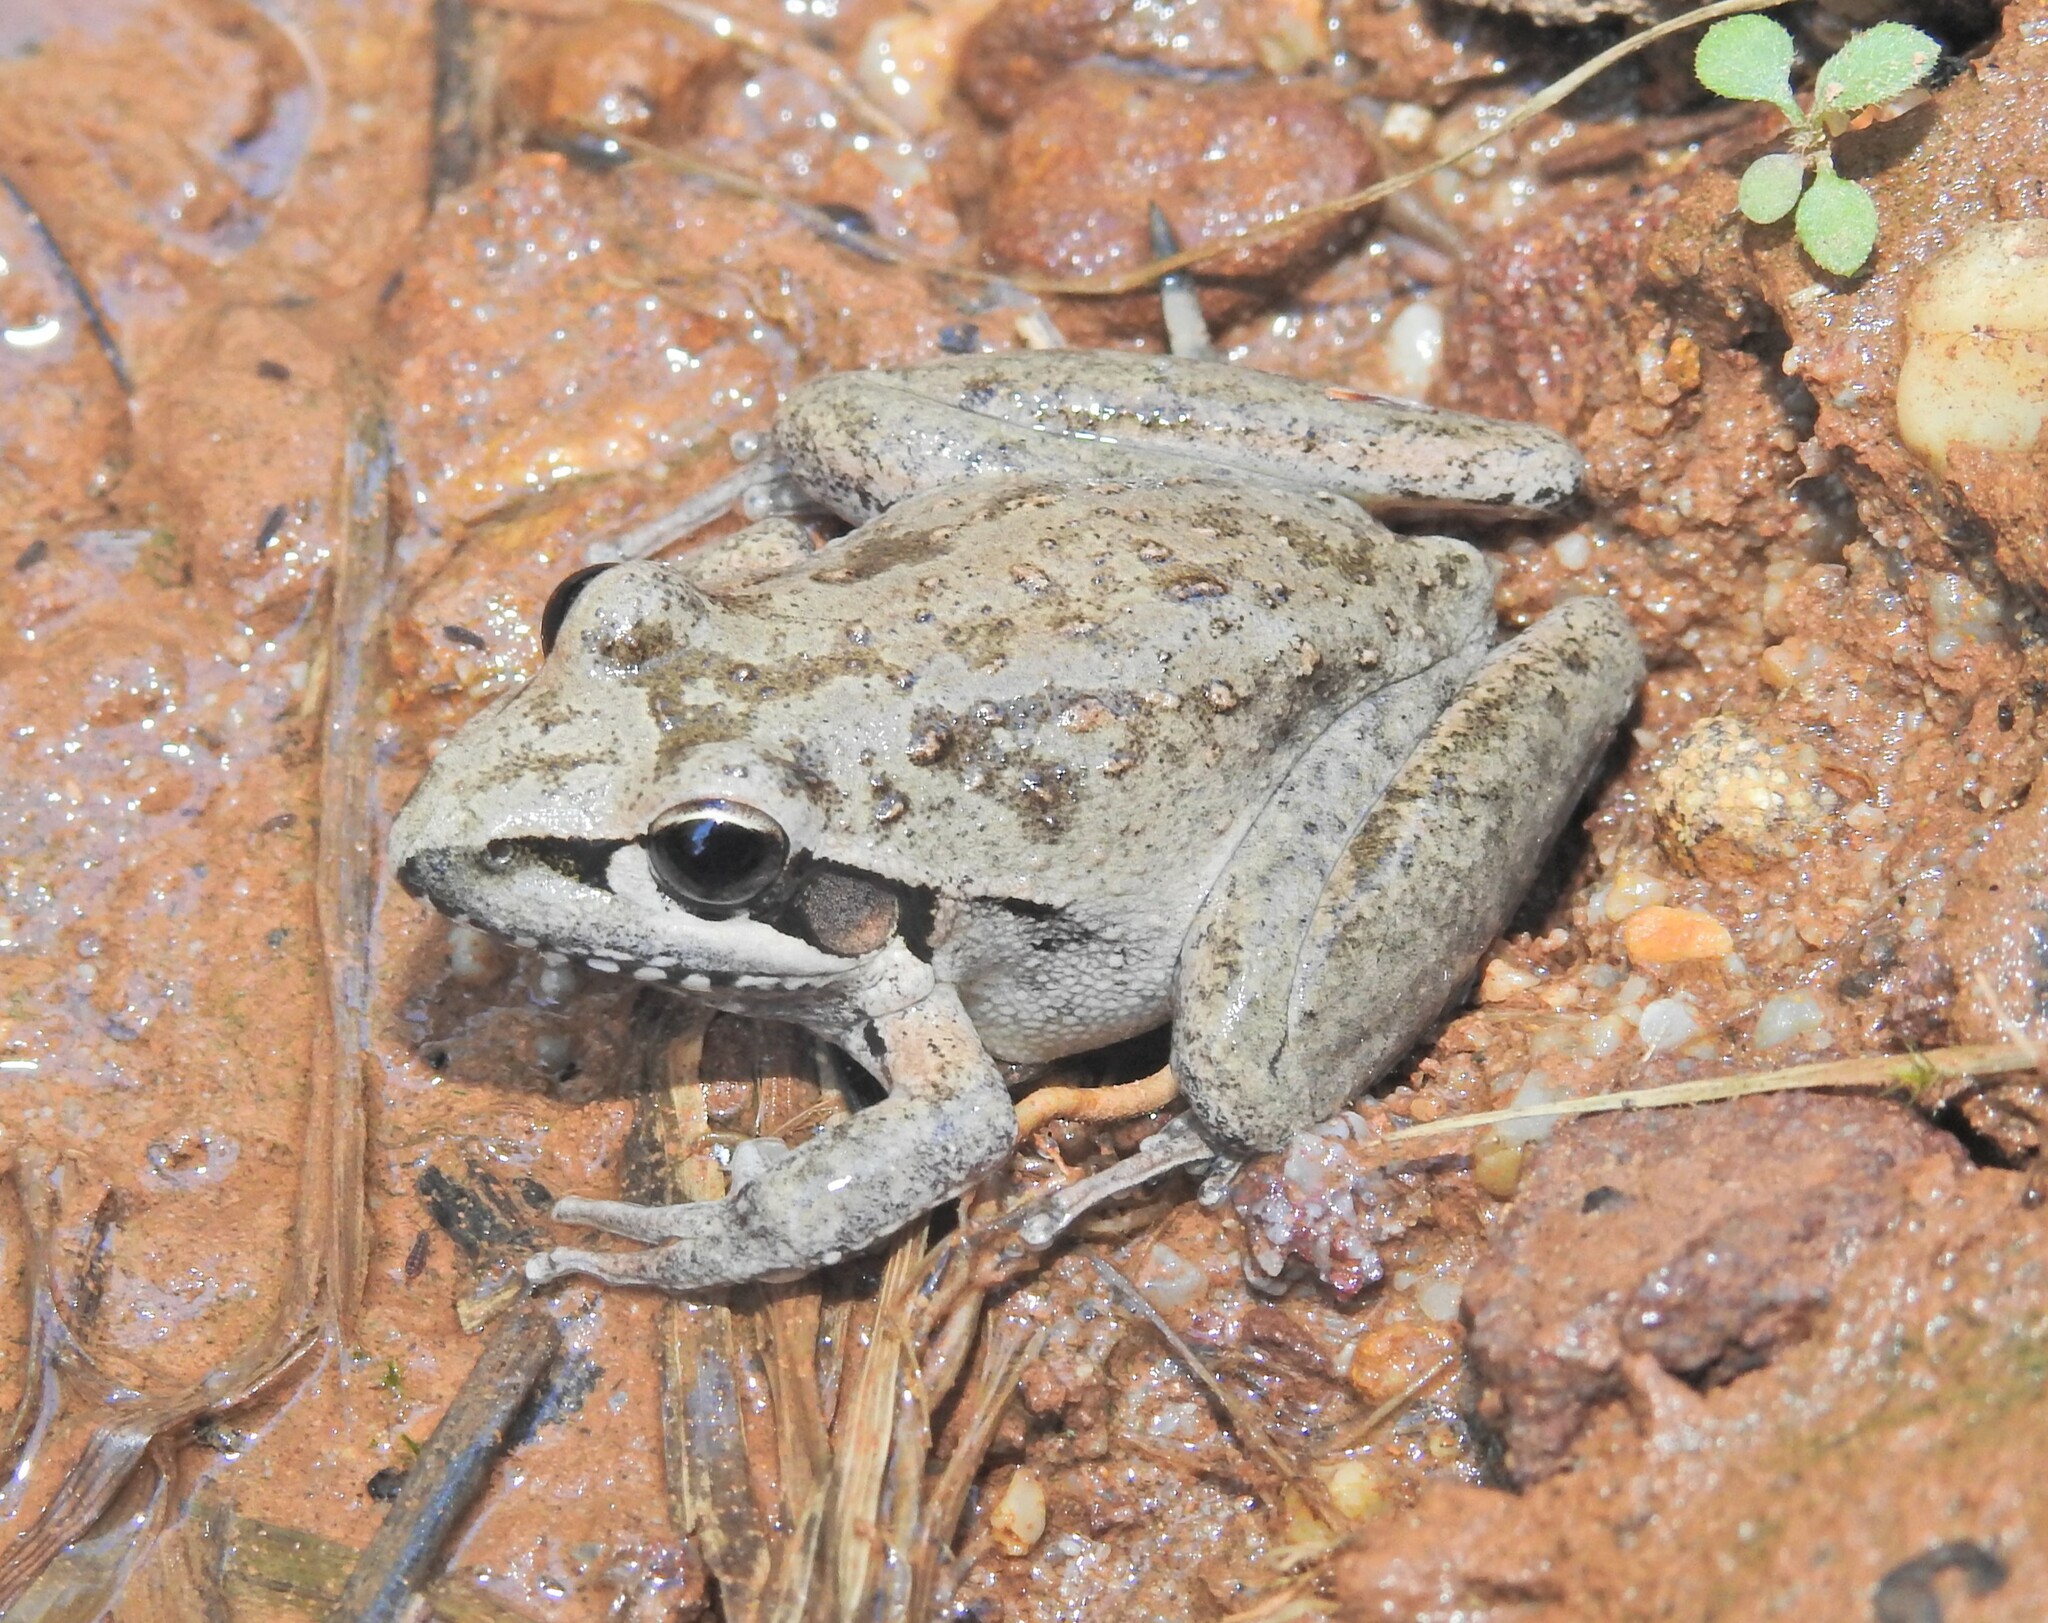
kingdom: Animalia
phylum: Chordata
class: Amphibia
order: Anura
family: Pelodryadidae
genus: Litoria
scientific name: Litoria latopalmata
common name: Broad-palmed rocket frog
